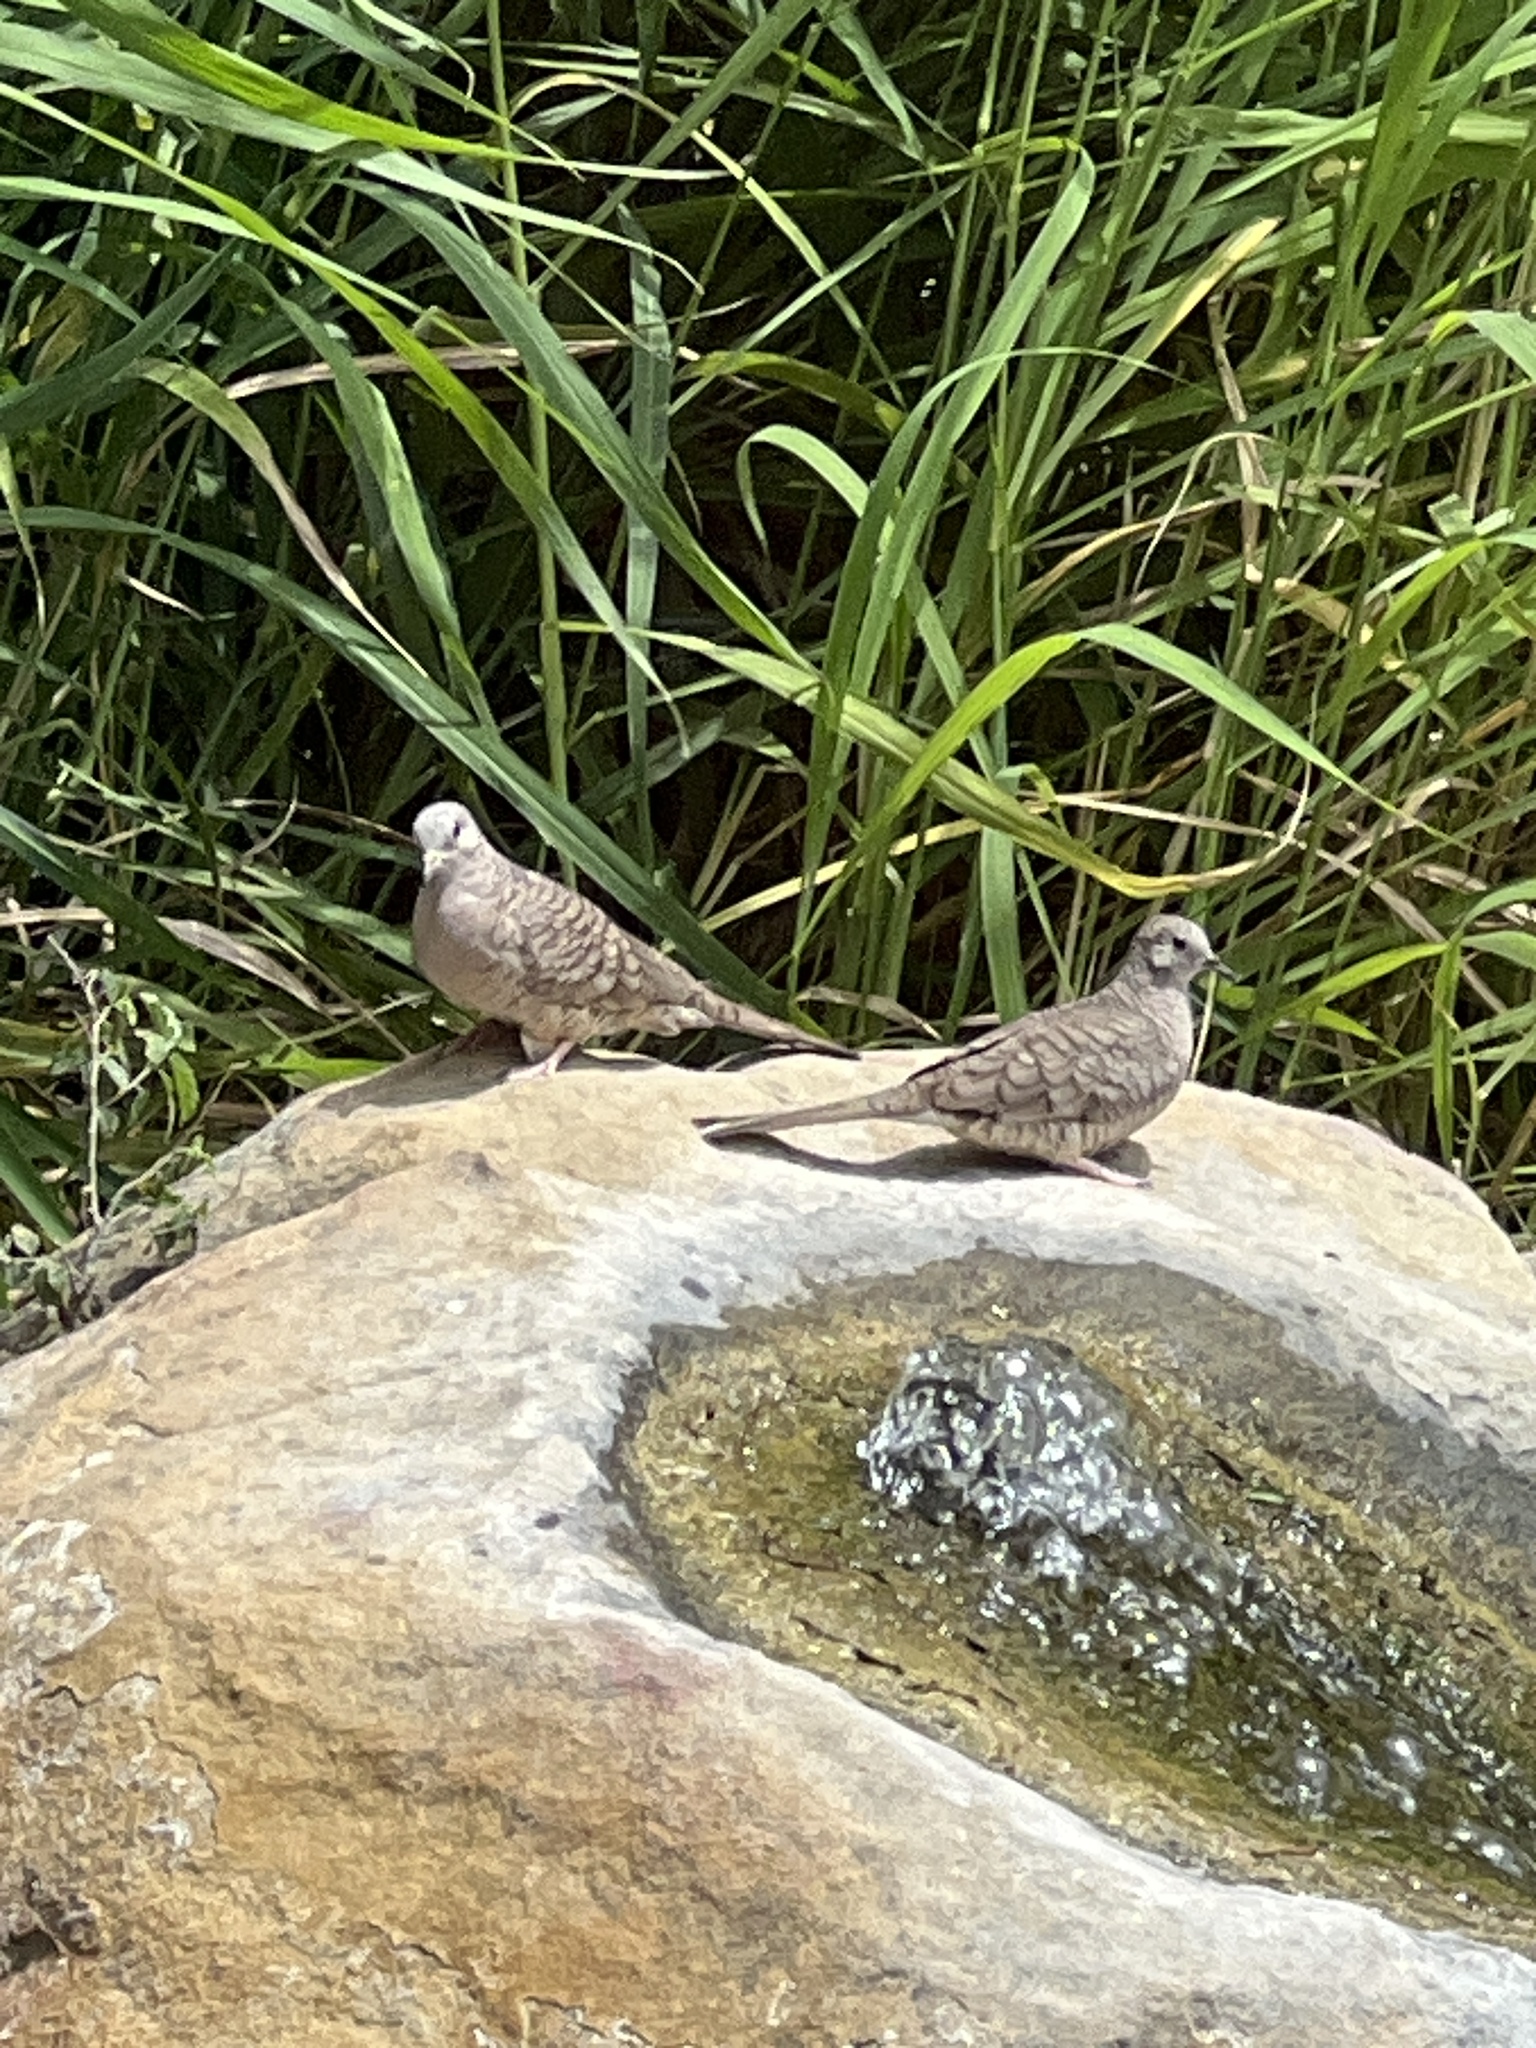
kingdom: Animalia
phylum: Chordata
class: Aves
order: Columbiformes
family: Columbidae
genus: Columbina
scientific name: Columbina inca
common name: Inca dove
